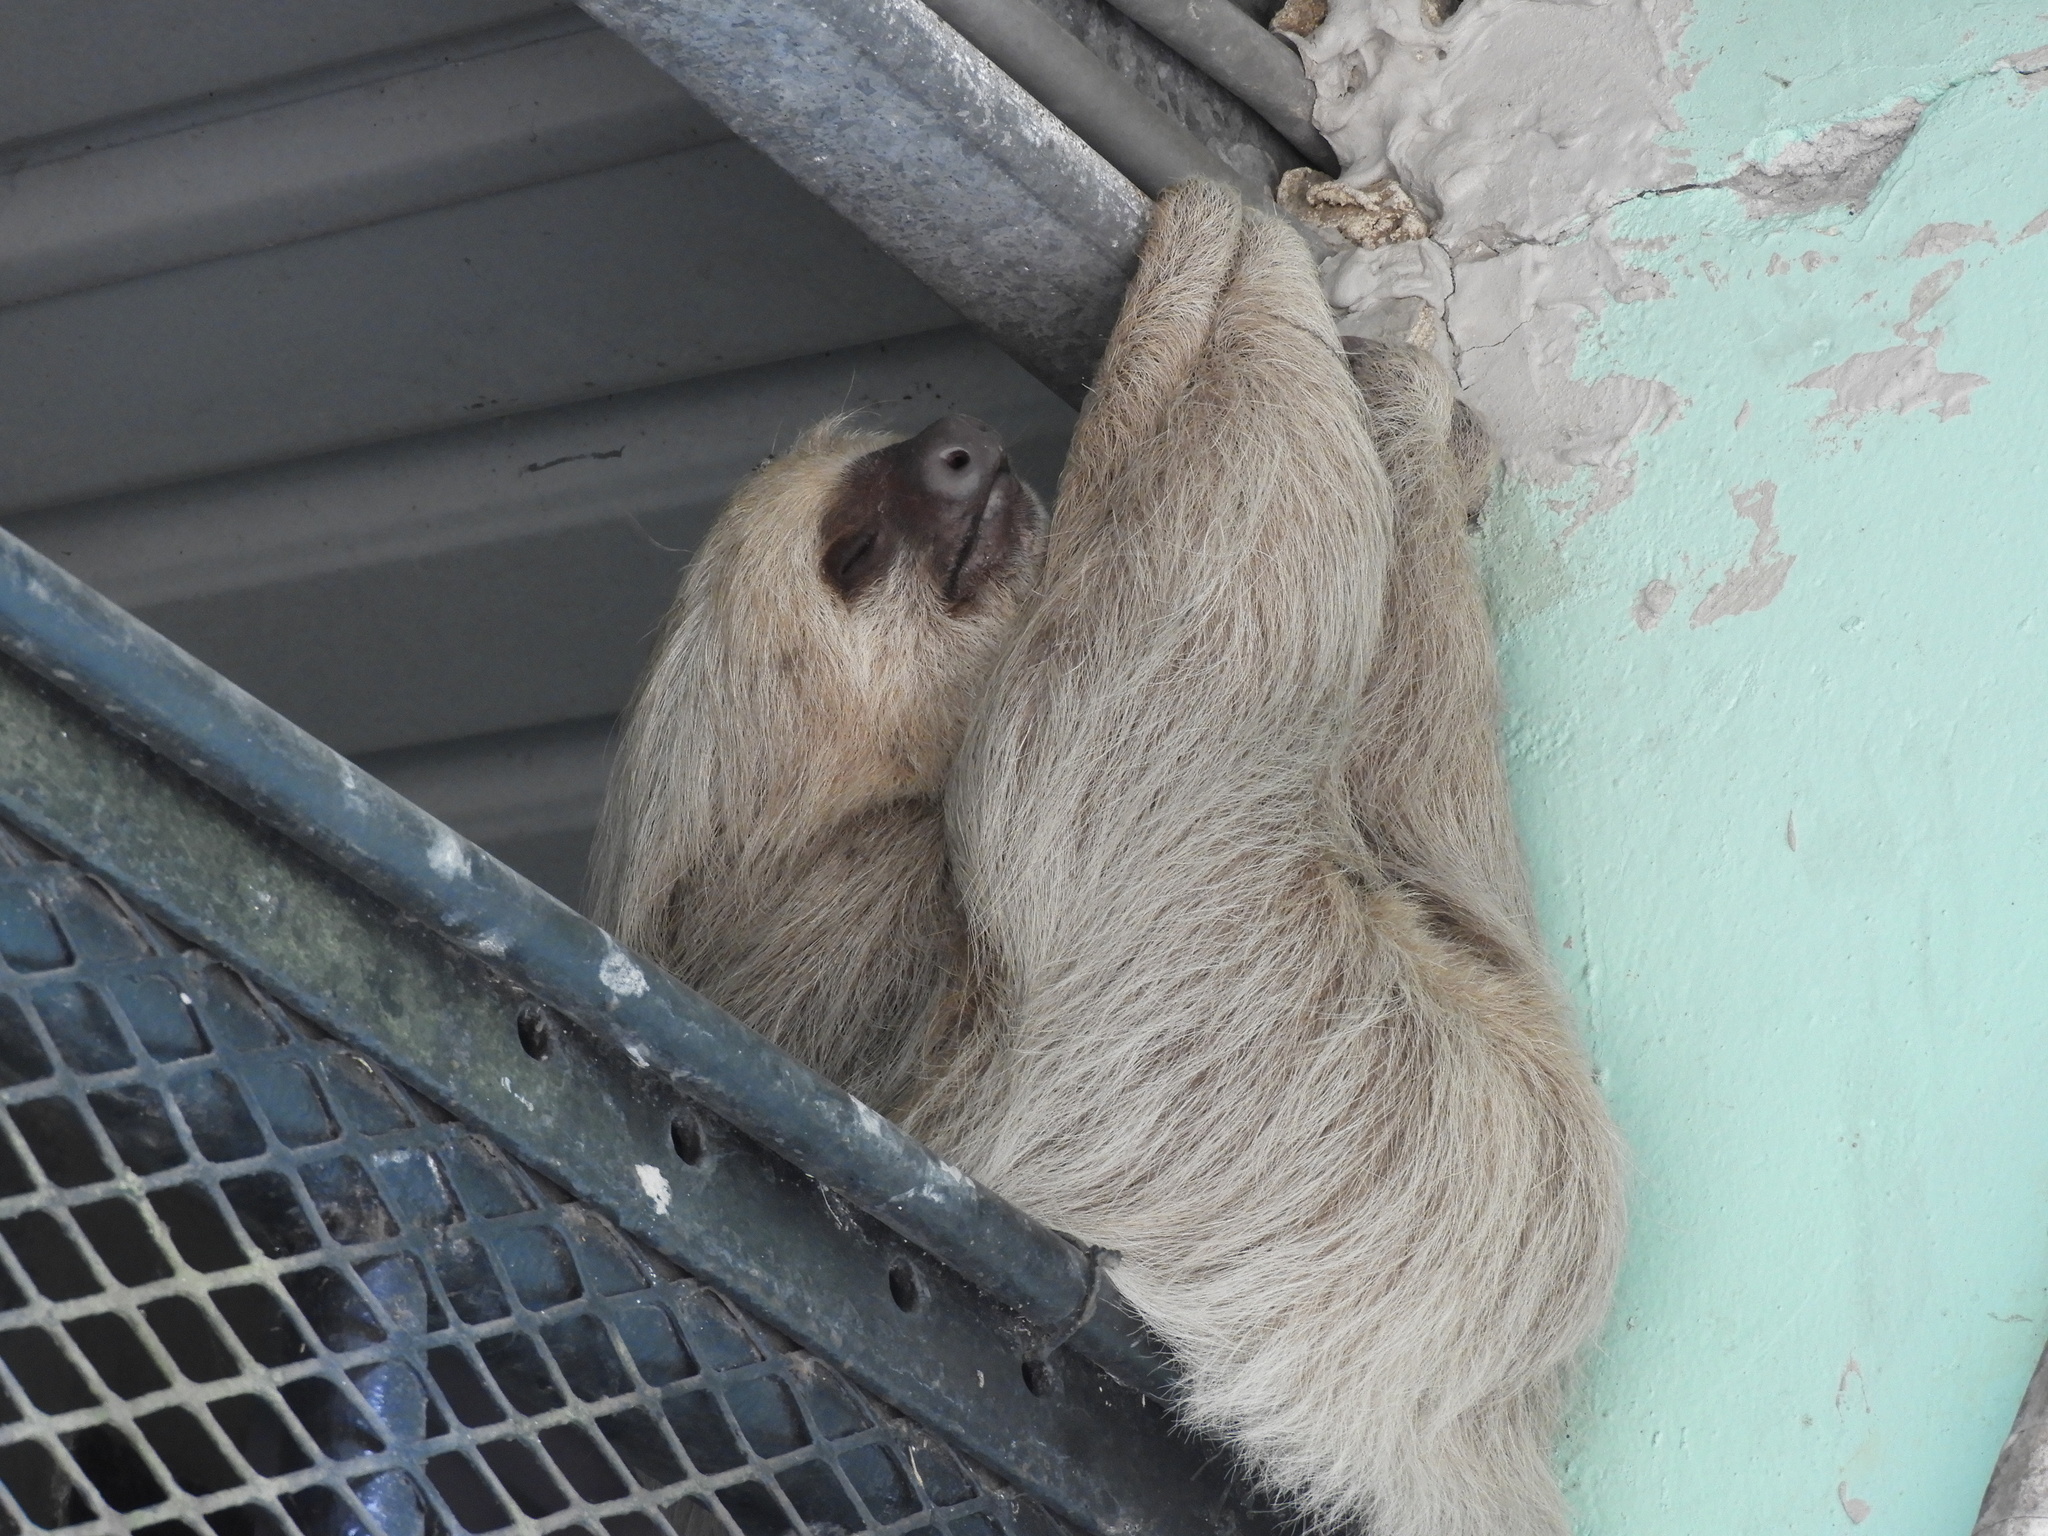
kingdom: Animalia
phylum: Chordata
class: Mammalia
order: Pilosa
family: Megalonychidae
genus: Choloepus
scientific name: Choloepus hoffmanni
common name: Hoffmann's two-toed sloth
